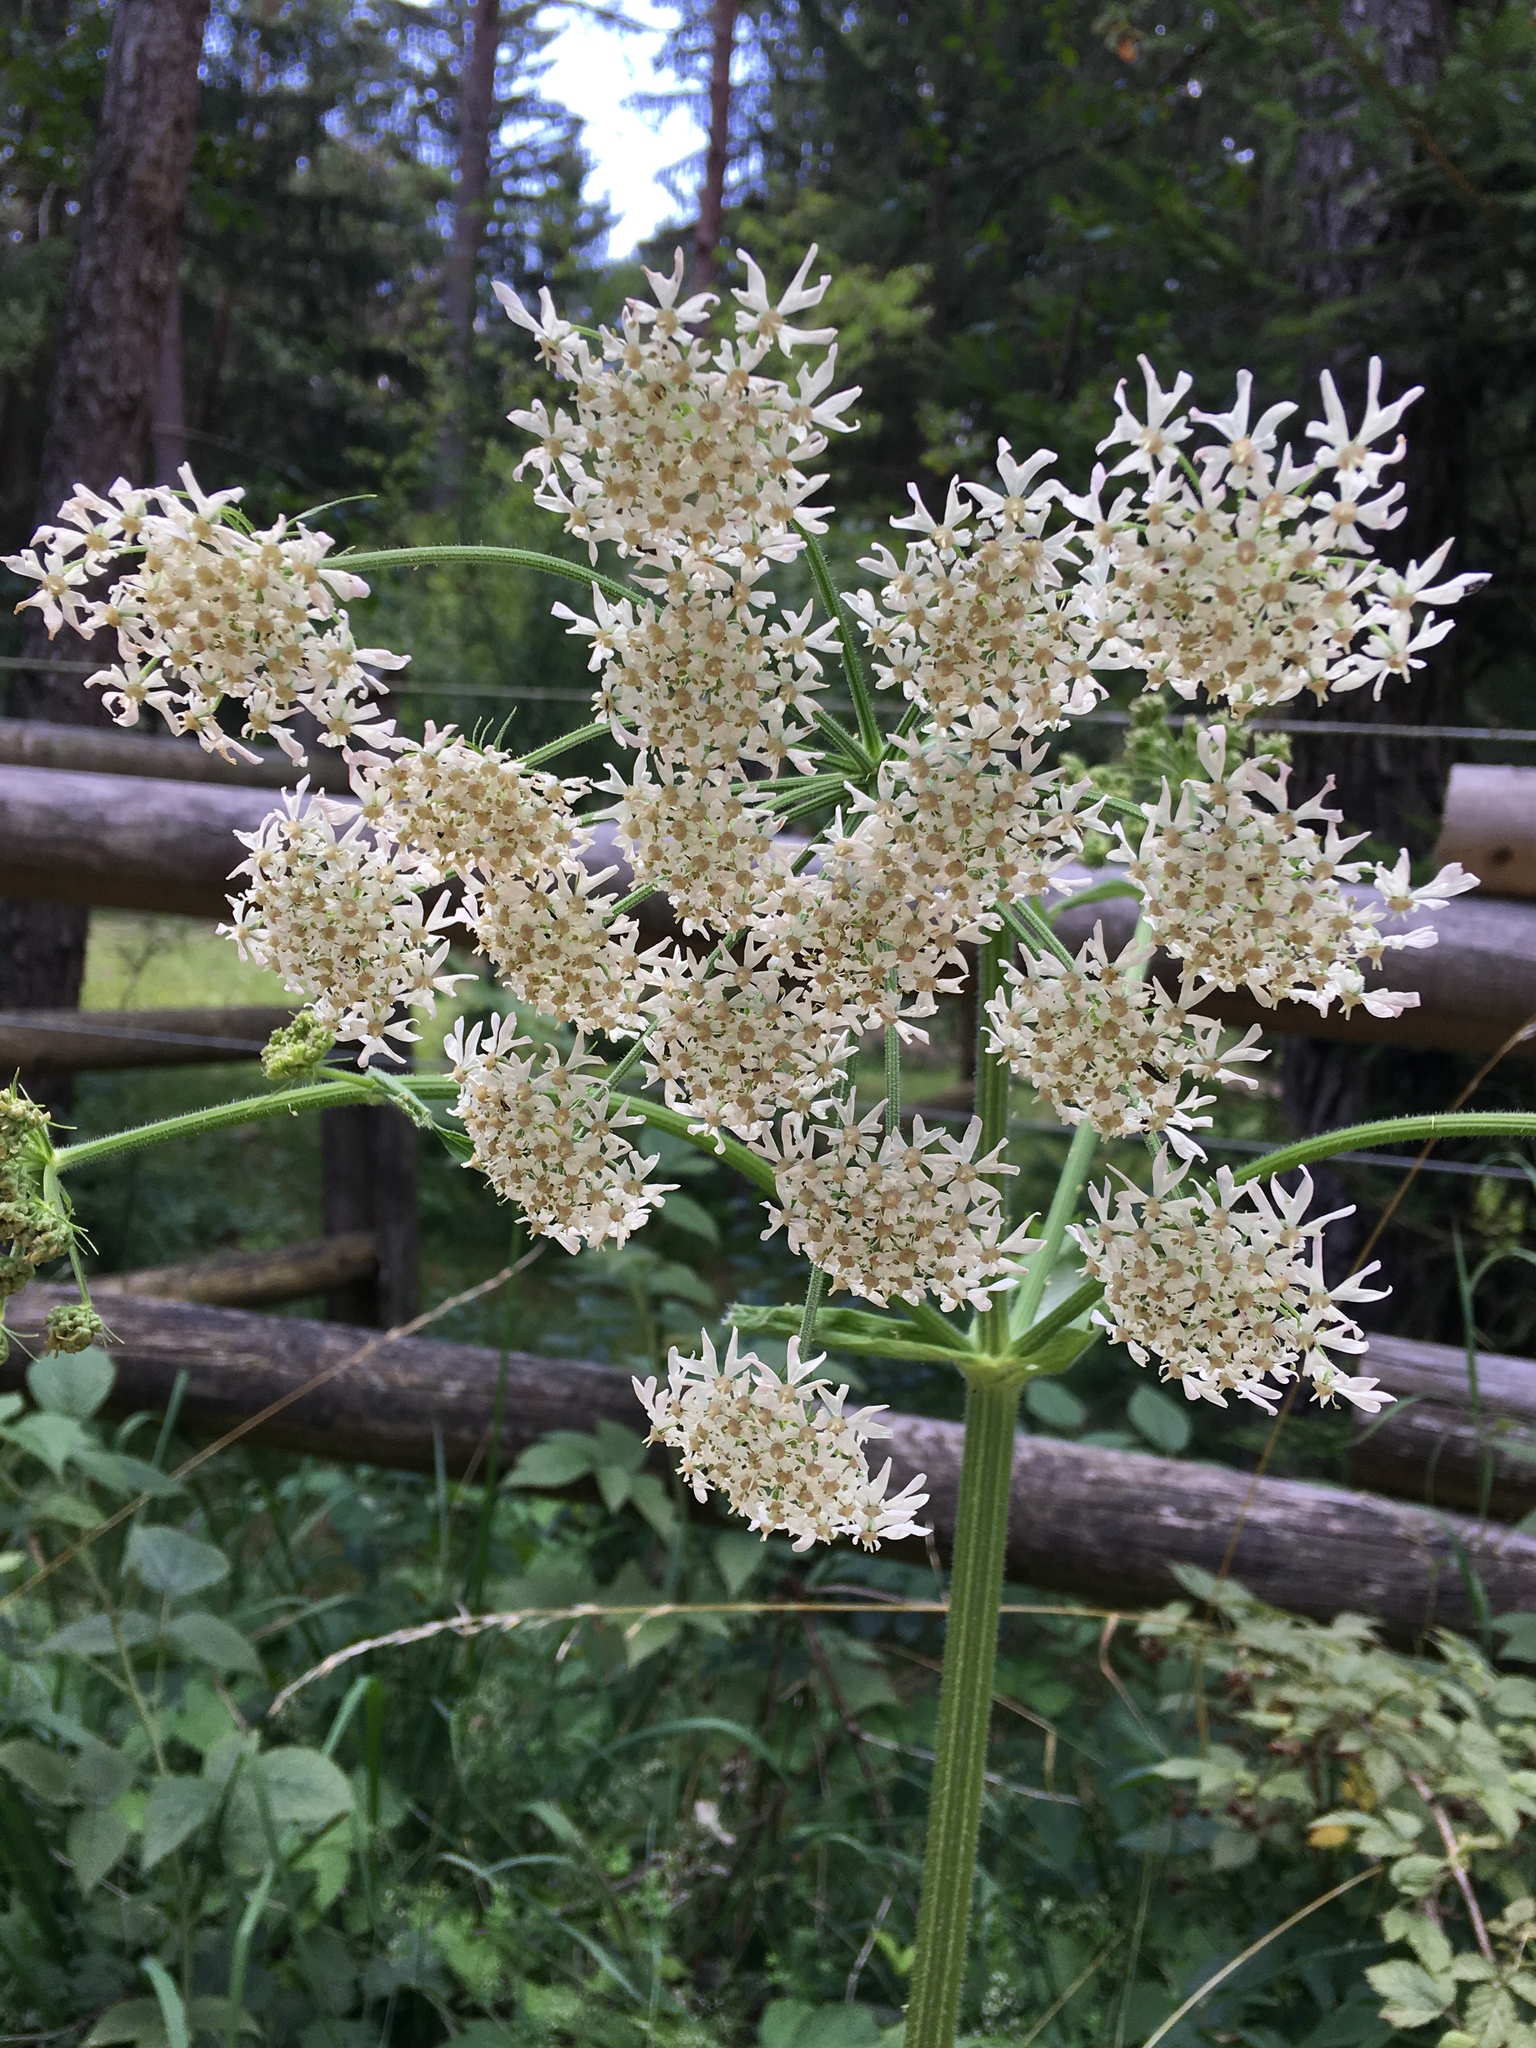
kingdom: Plantae
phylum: Tracheophyta
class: Magnoliopsida
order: Apiales
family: Apiaceae
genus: Heracleum
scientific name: Heracleum sphondylium
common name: Hogweed
